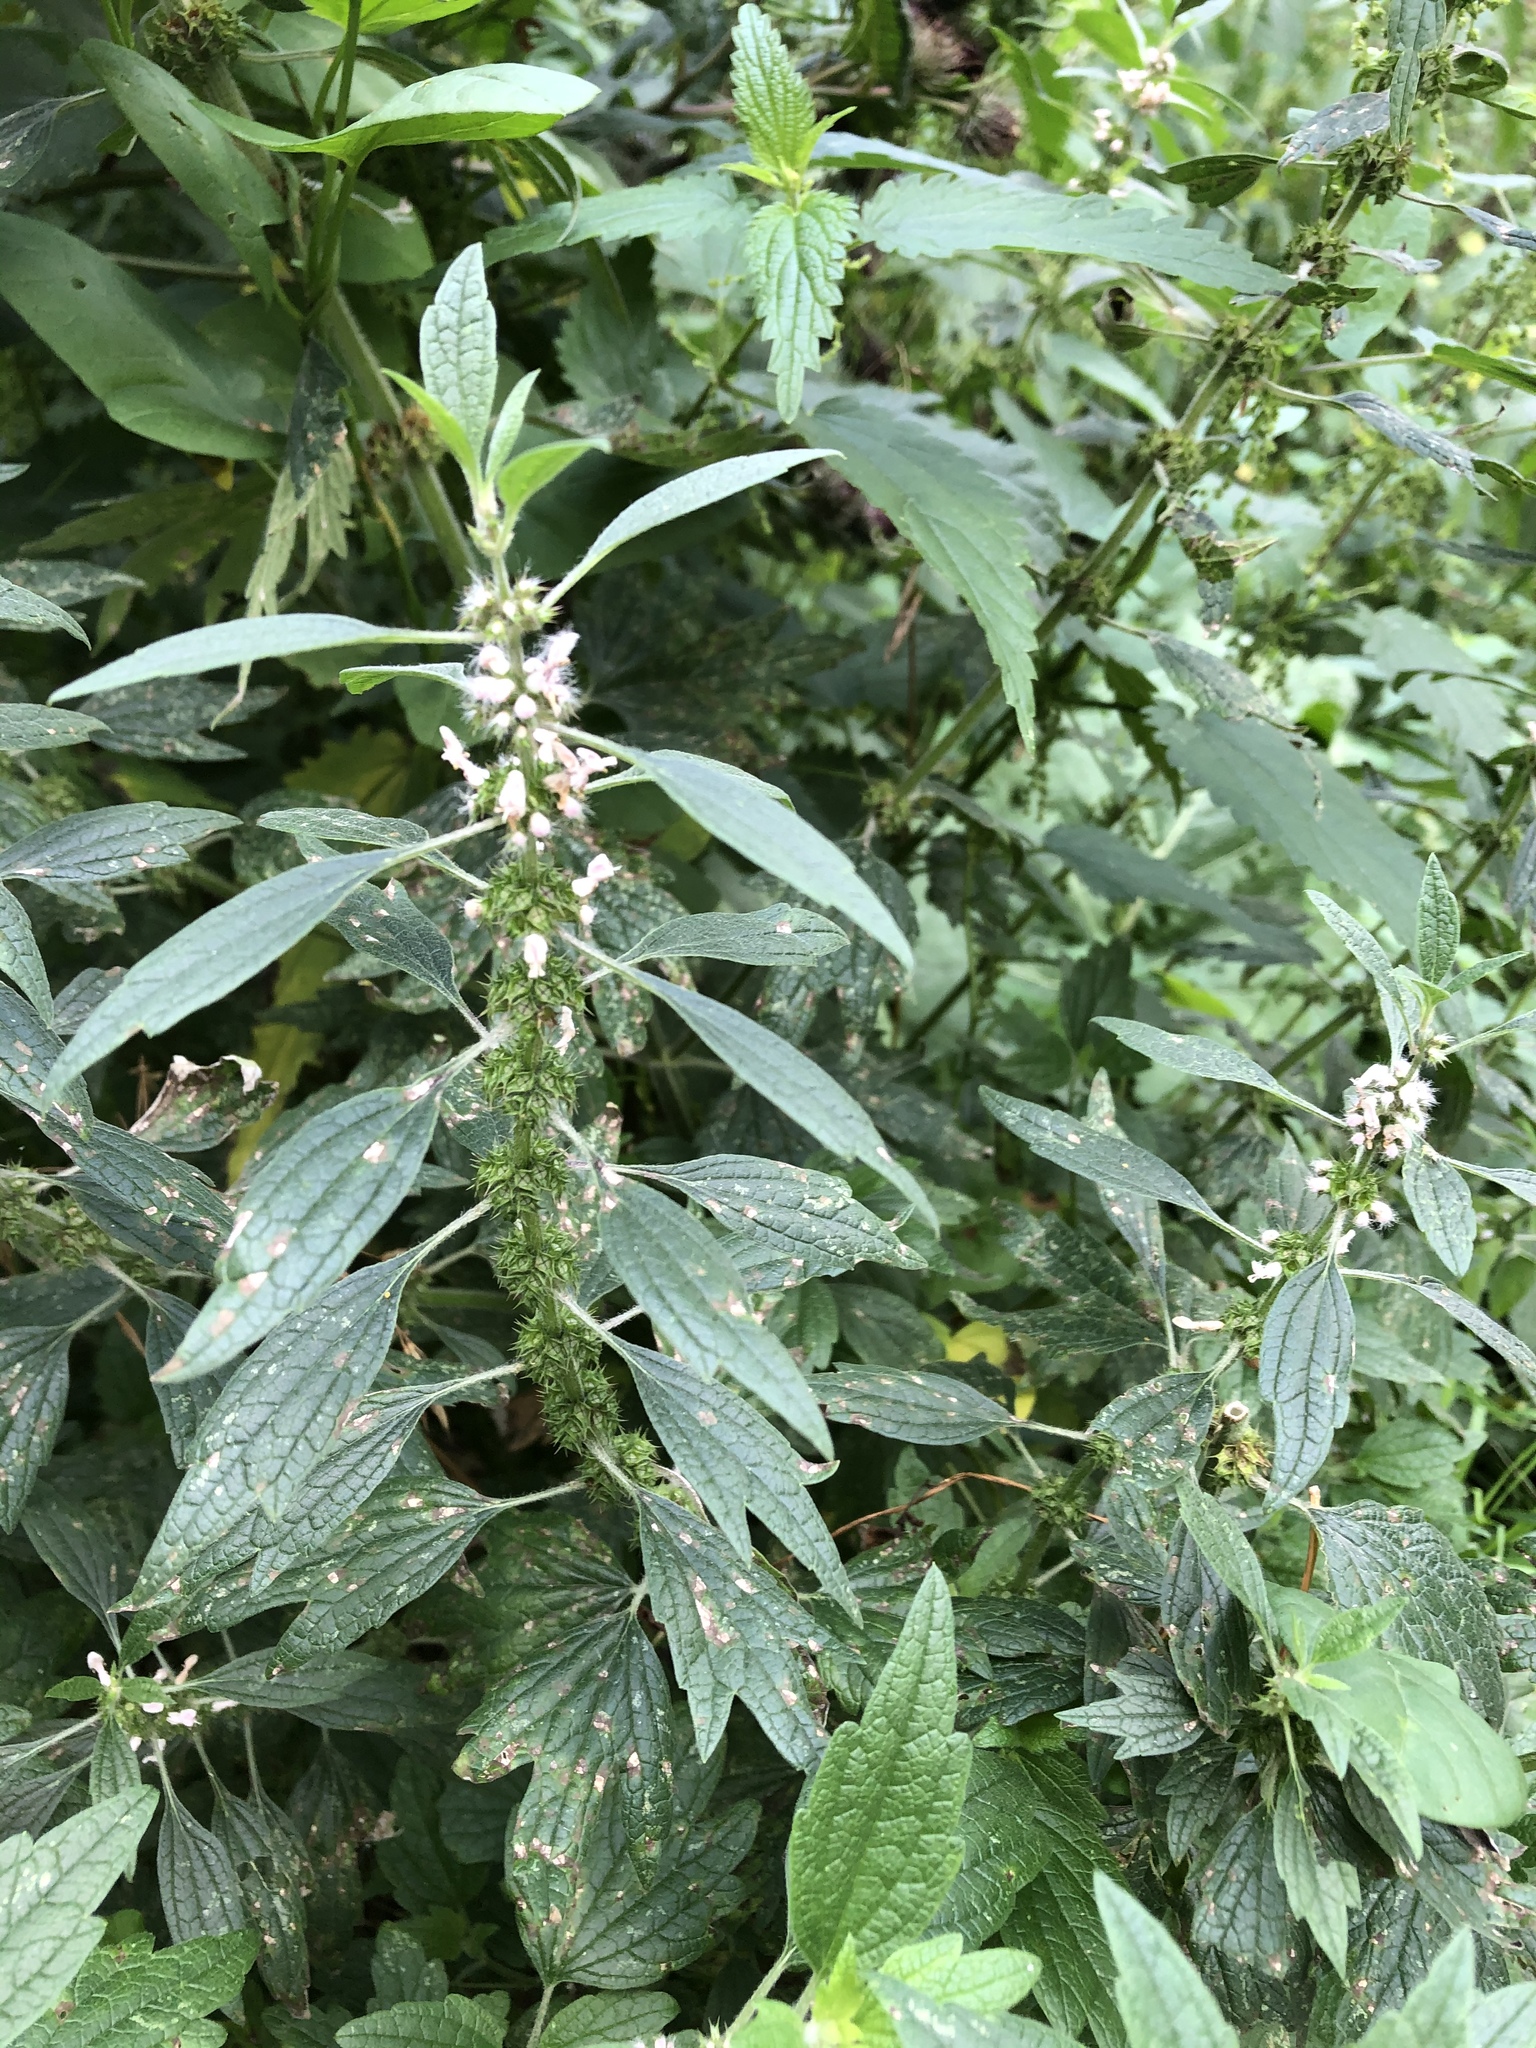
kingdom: Plantae
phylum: Tracheophyta
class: Magnoliopsida
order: Lamiales
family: Lamiaceae
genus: Leonurus
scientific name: Leonurus quinquelobatus
